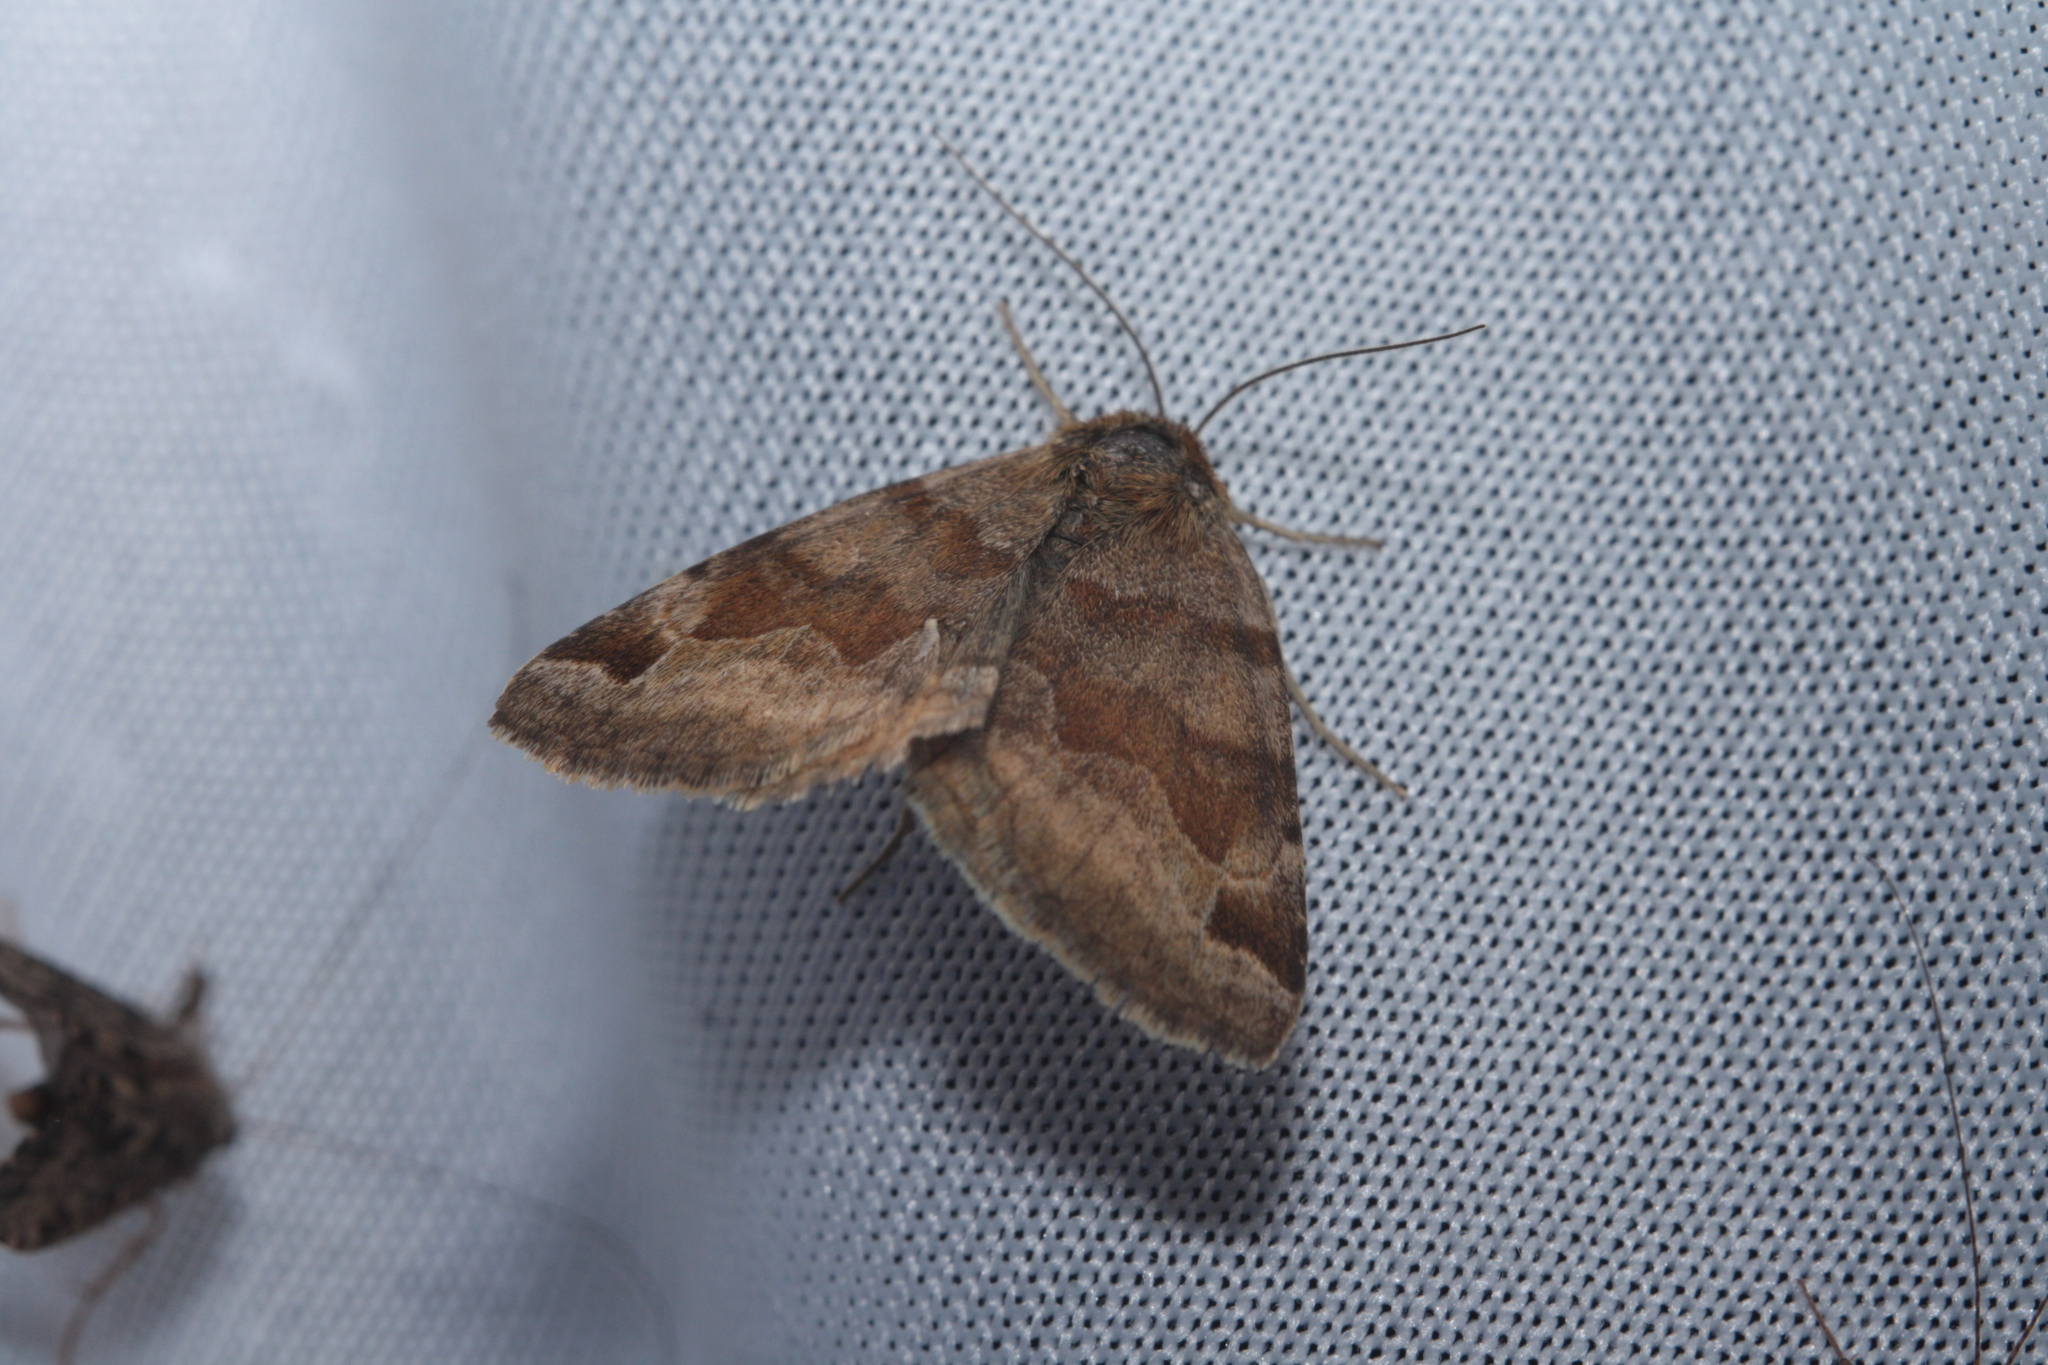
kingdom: Animalia
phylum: Arthropoda
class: Insecta
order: Lepidoptera
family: Erebidae
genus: Euclidia
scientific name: Euclidia glyphica
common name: Burnet companion
